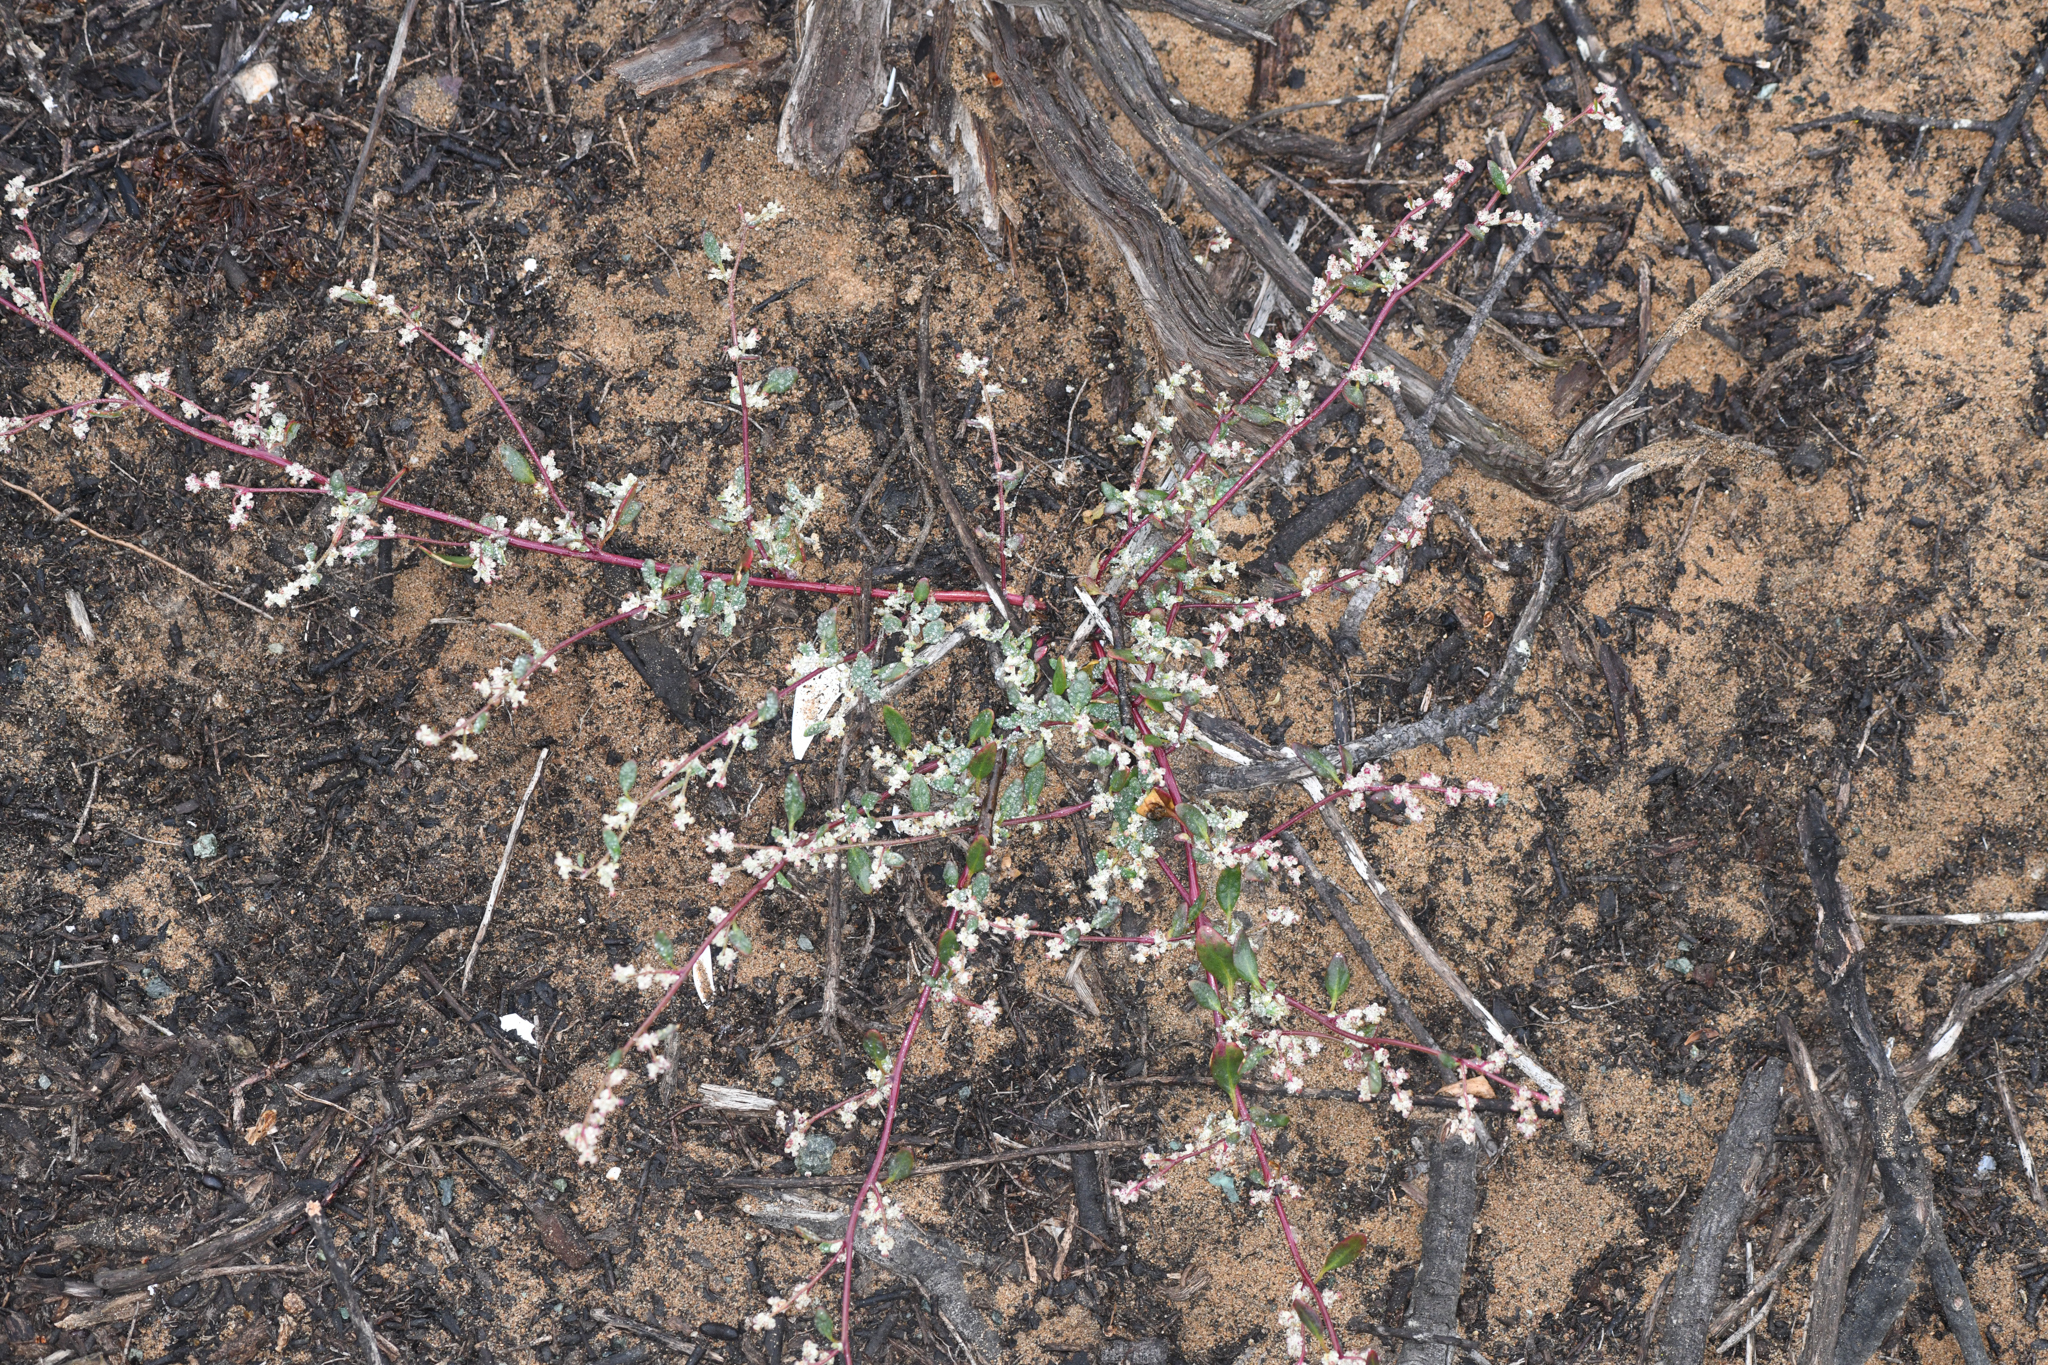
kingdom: Plantae
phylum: Tracheophyta
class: Magnoliopsida
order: Caryophyllales
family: Amaranthaceae
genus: Chenopodium
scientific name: Chenopodium littoreum
